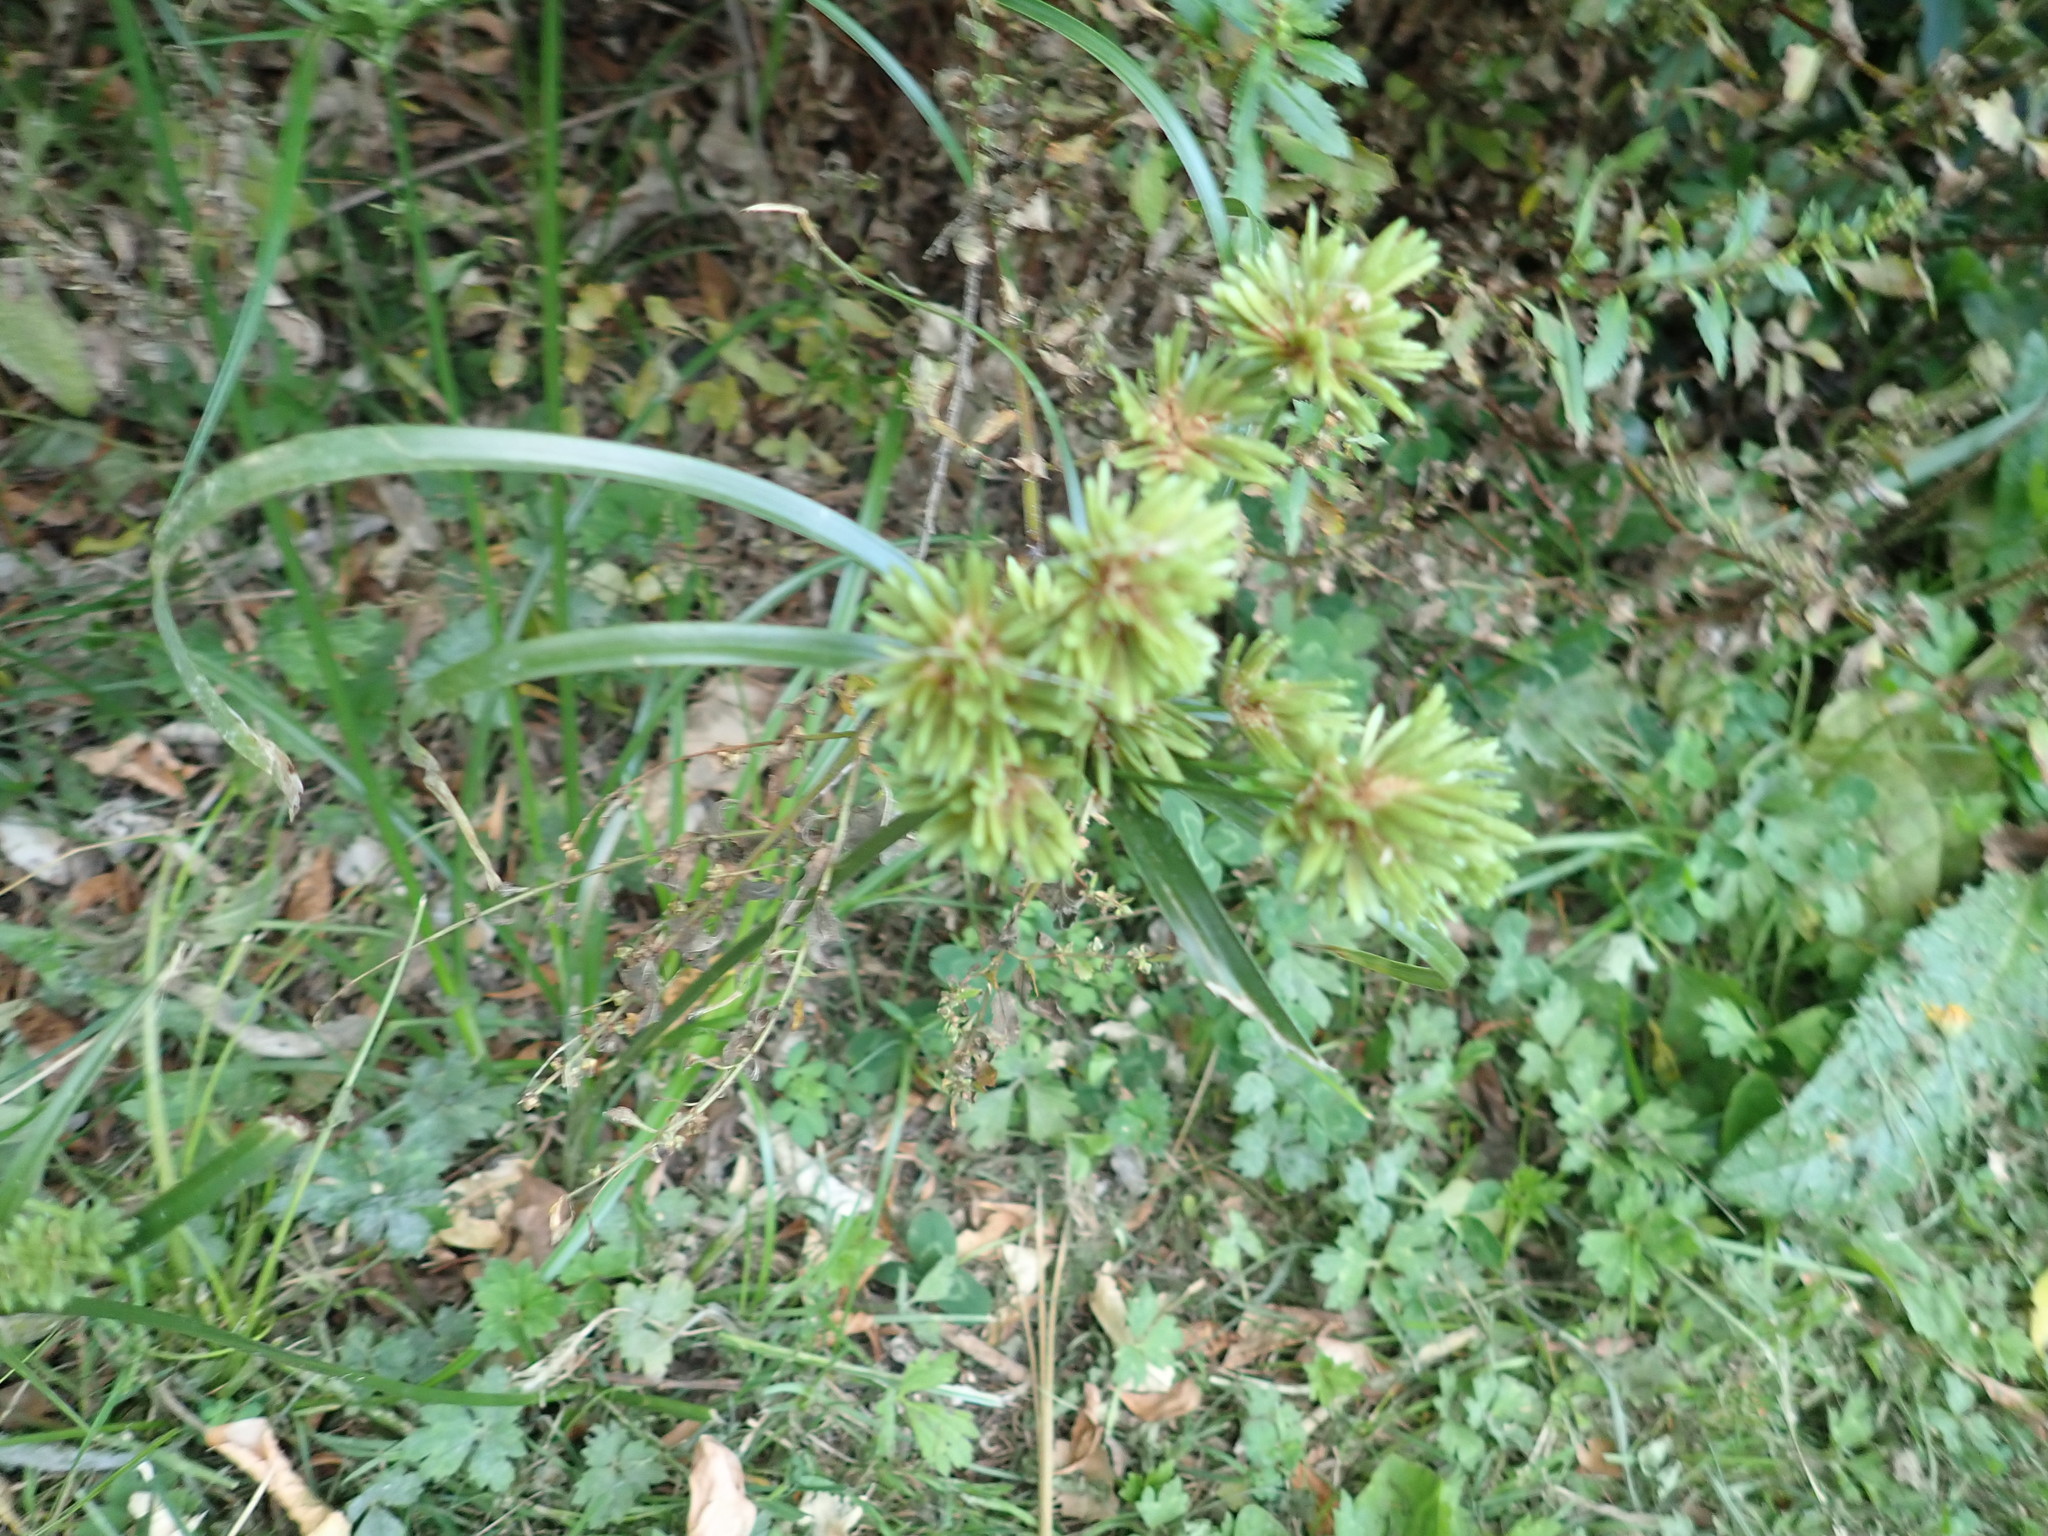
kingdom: Plantae
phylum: Tracheophyta
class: Liliopsida
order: Poales
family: Cyperaceae
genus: Cyperus
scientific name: Cyperus eragrostis
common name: Tall flatsedge
